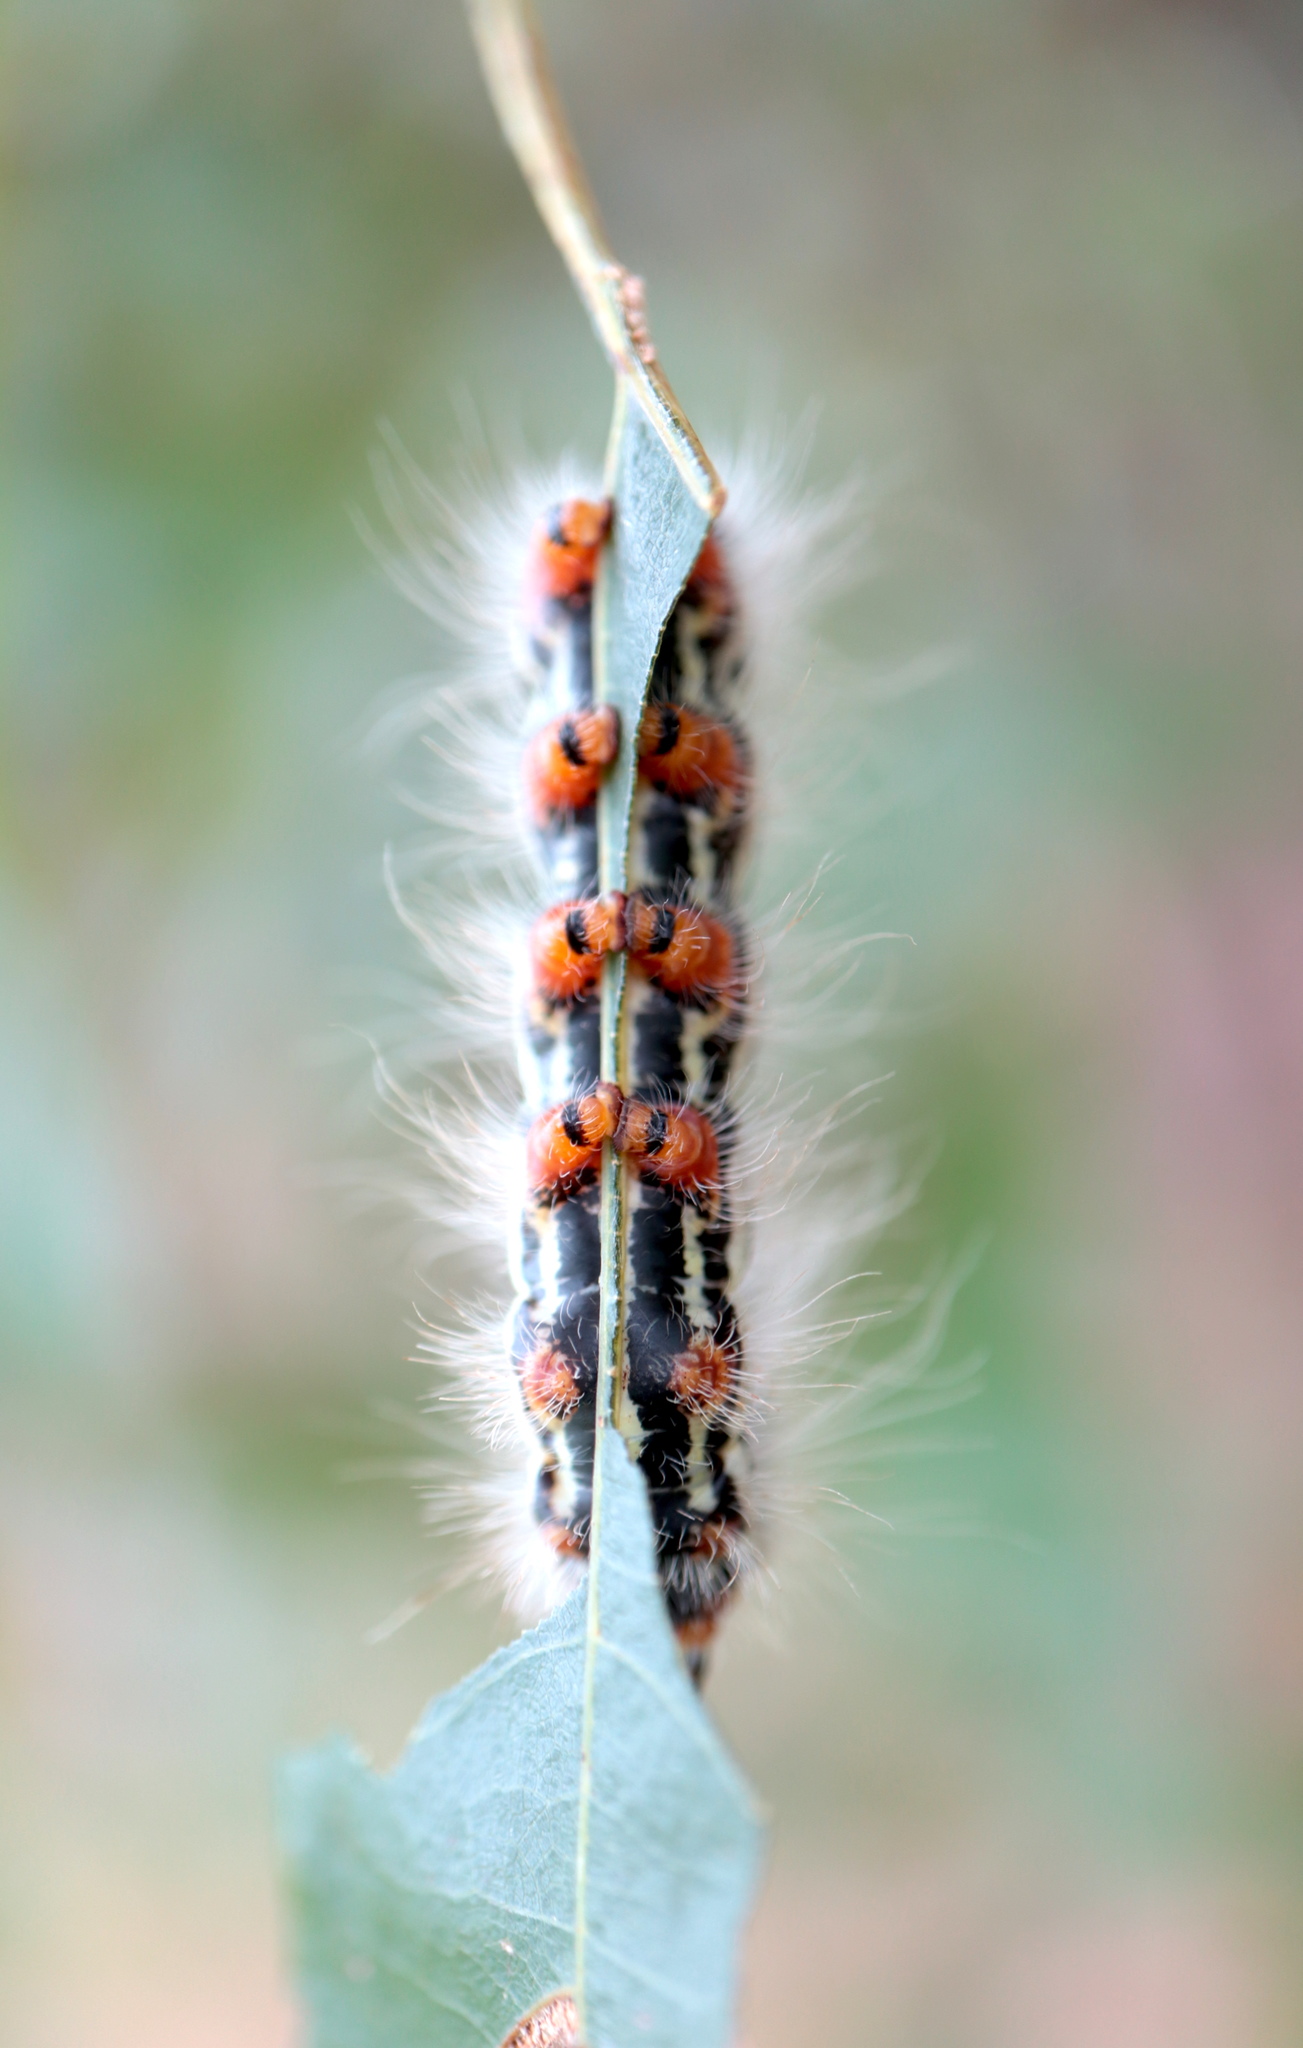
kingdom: Animalia
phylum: Arthropoda
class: Insecta
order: Lepidoptera
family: Notodontidae
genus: Datana
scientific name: Datana contracta
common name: Contracted datana
